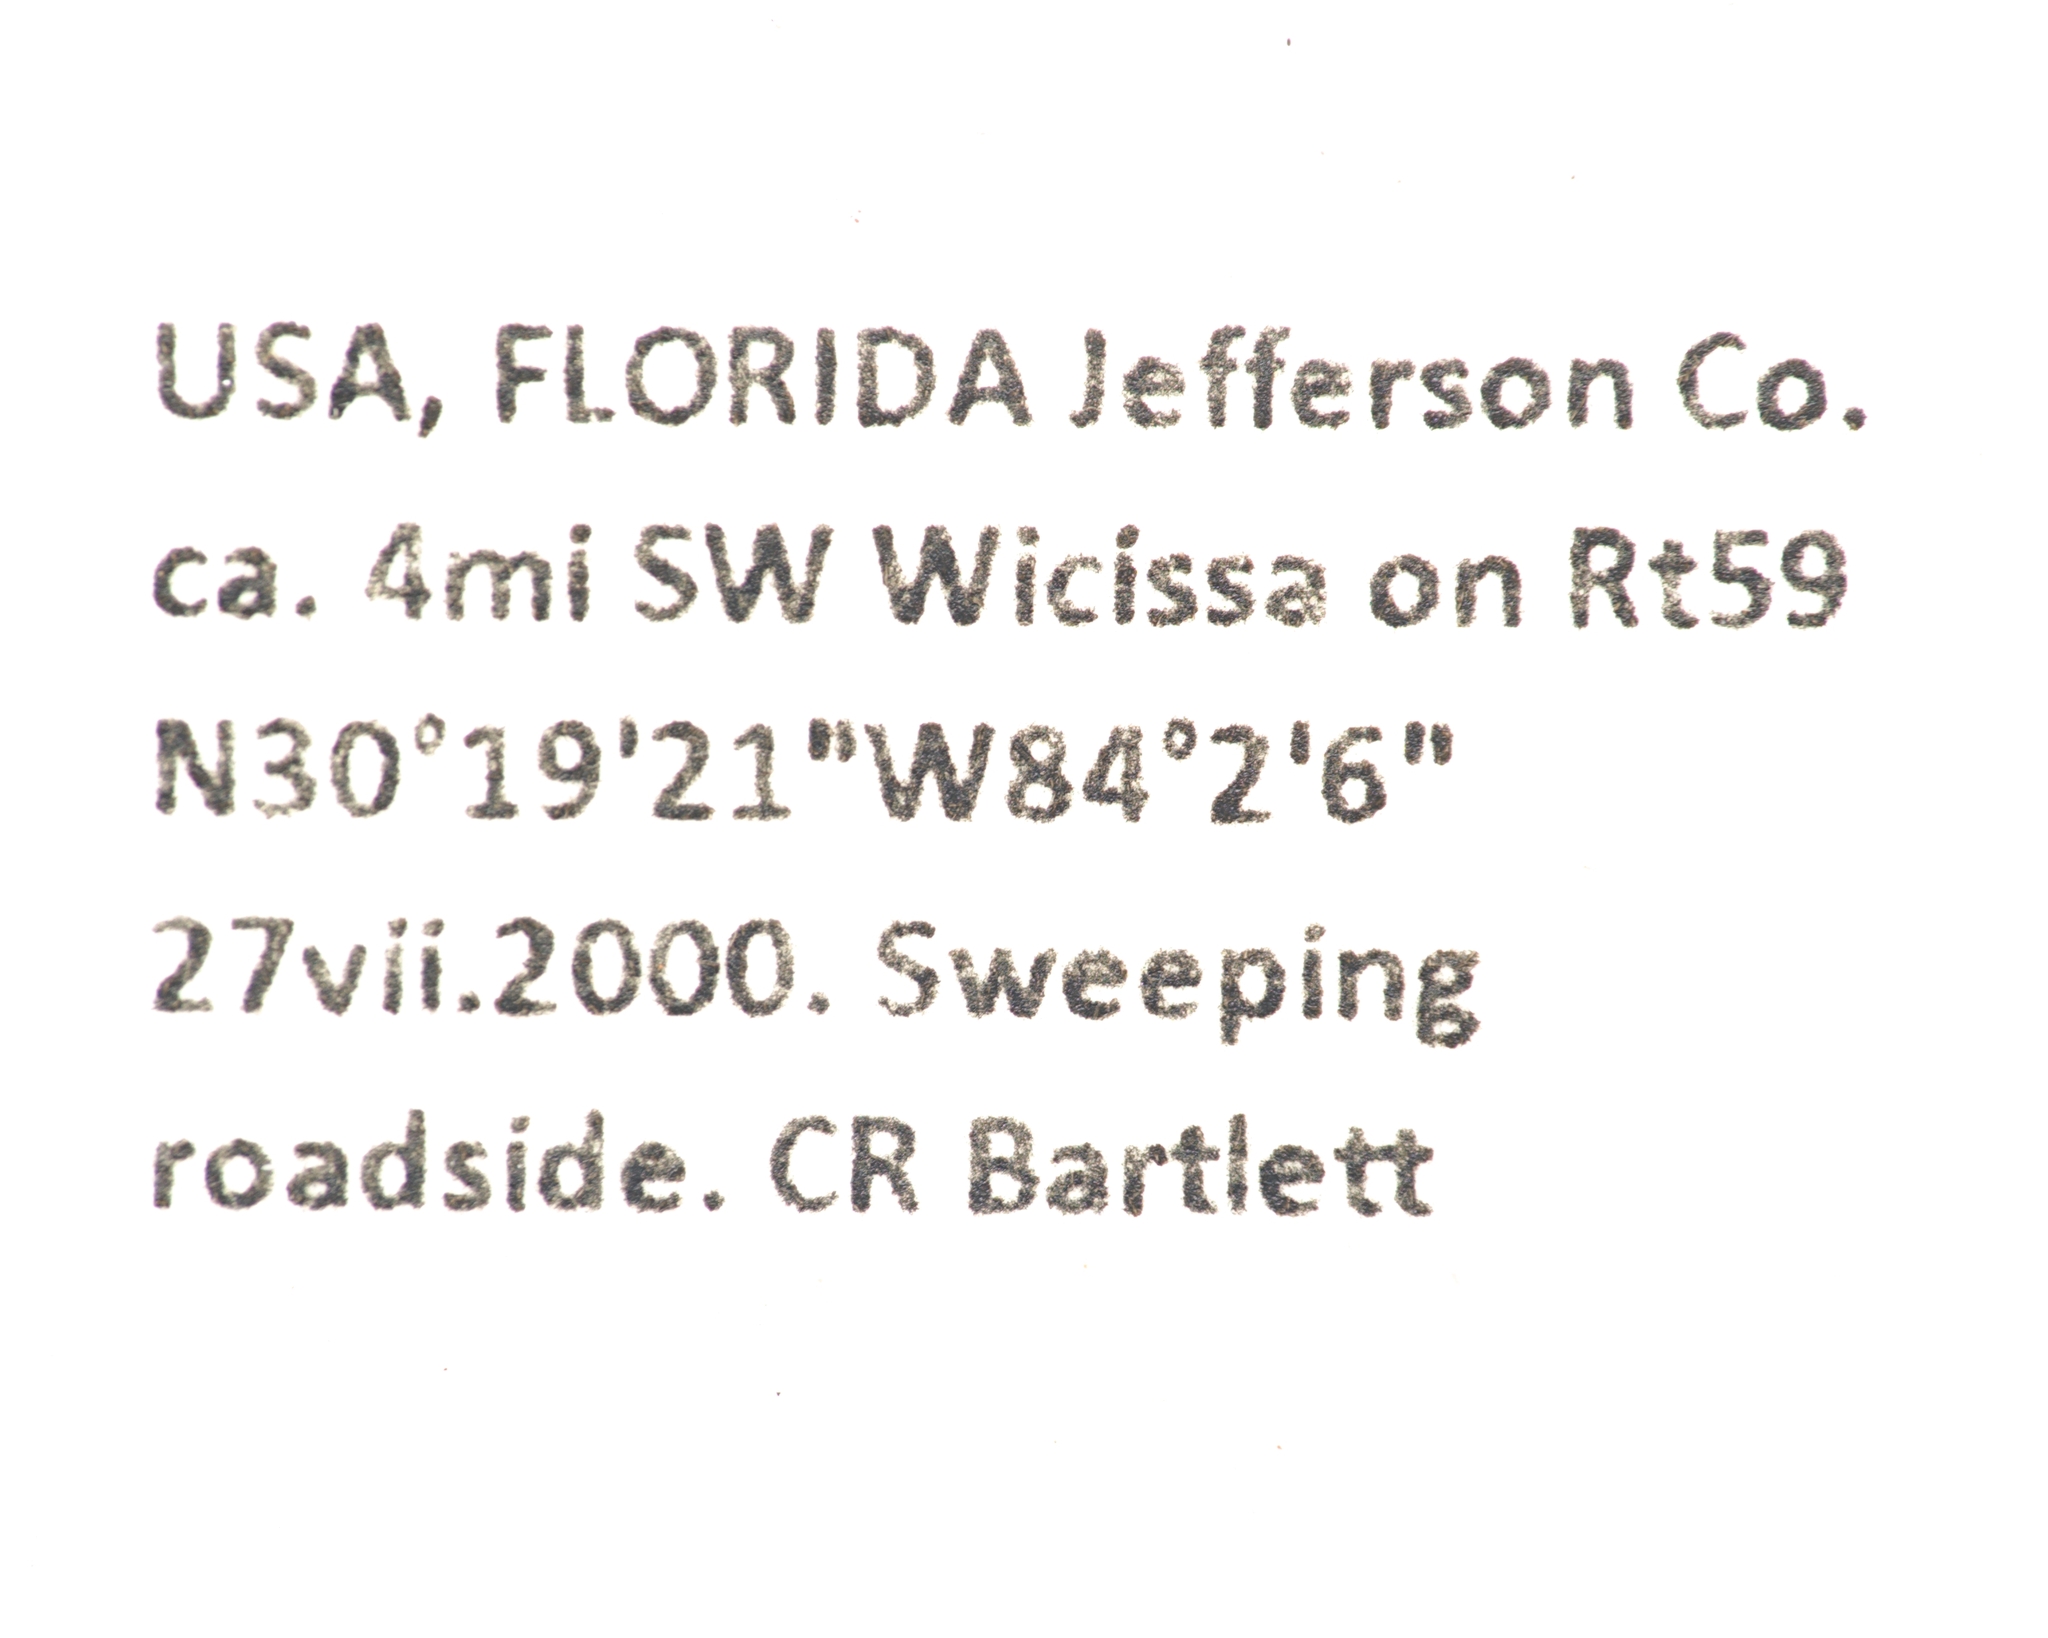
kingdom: Animalia
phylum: Arthropoda
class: Insecta
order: Coleoptera
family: Cerambycidae
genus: Spalacopsis
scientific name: Spalacopsis chemsaki
